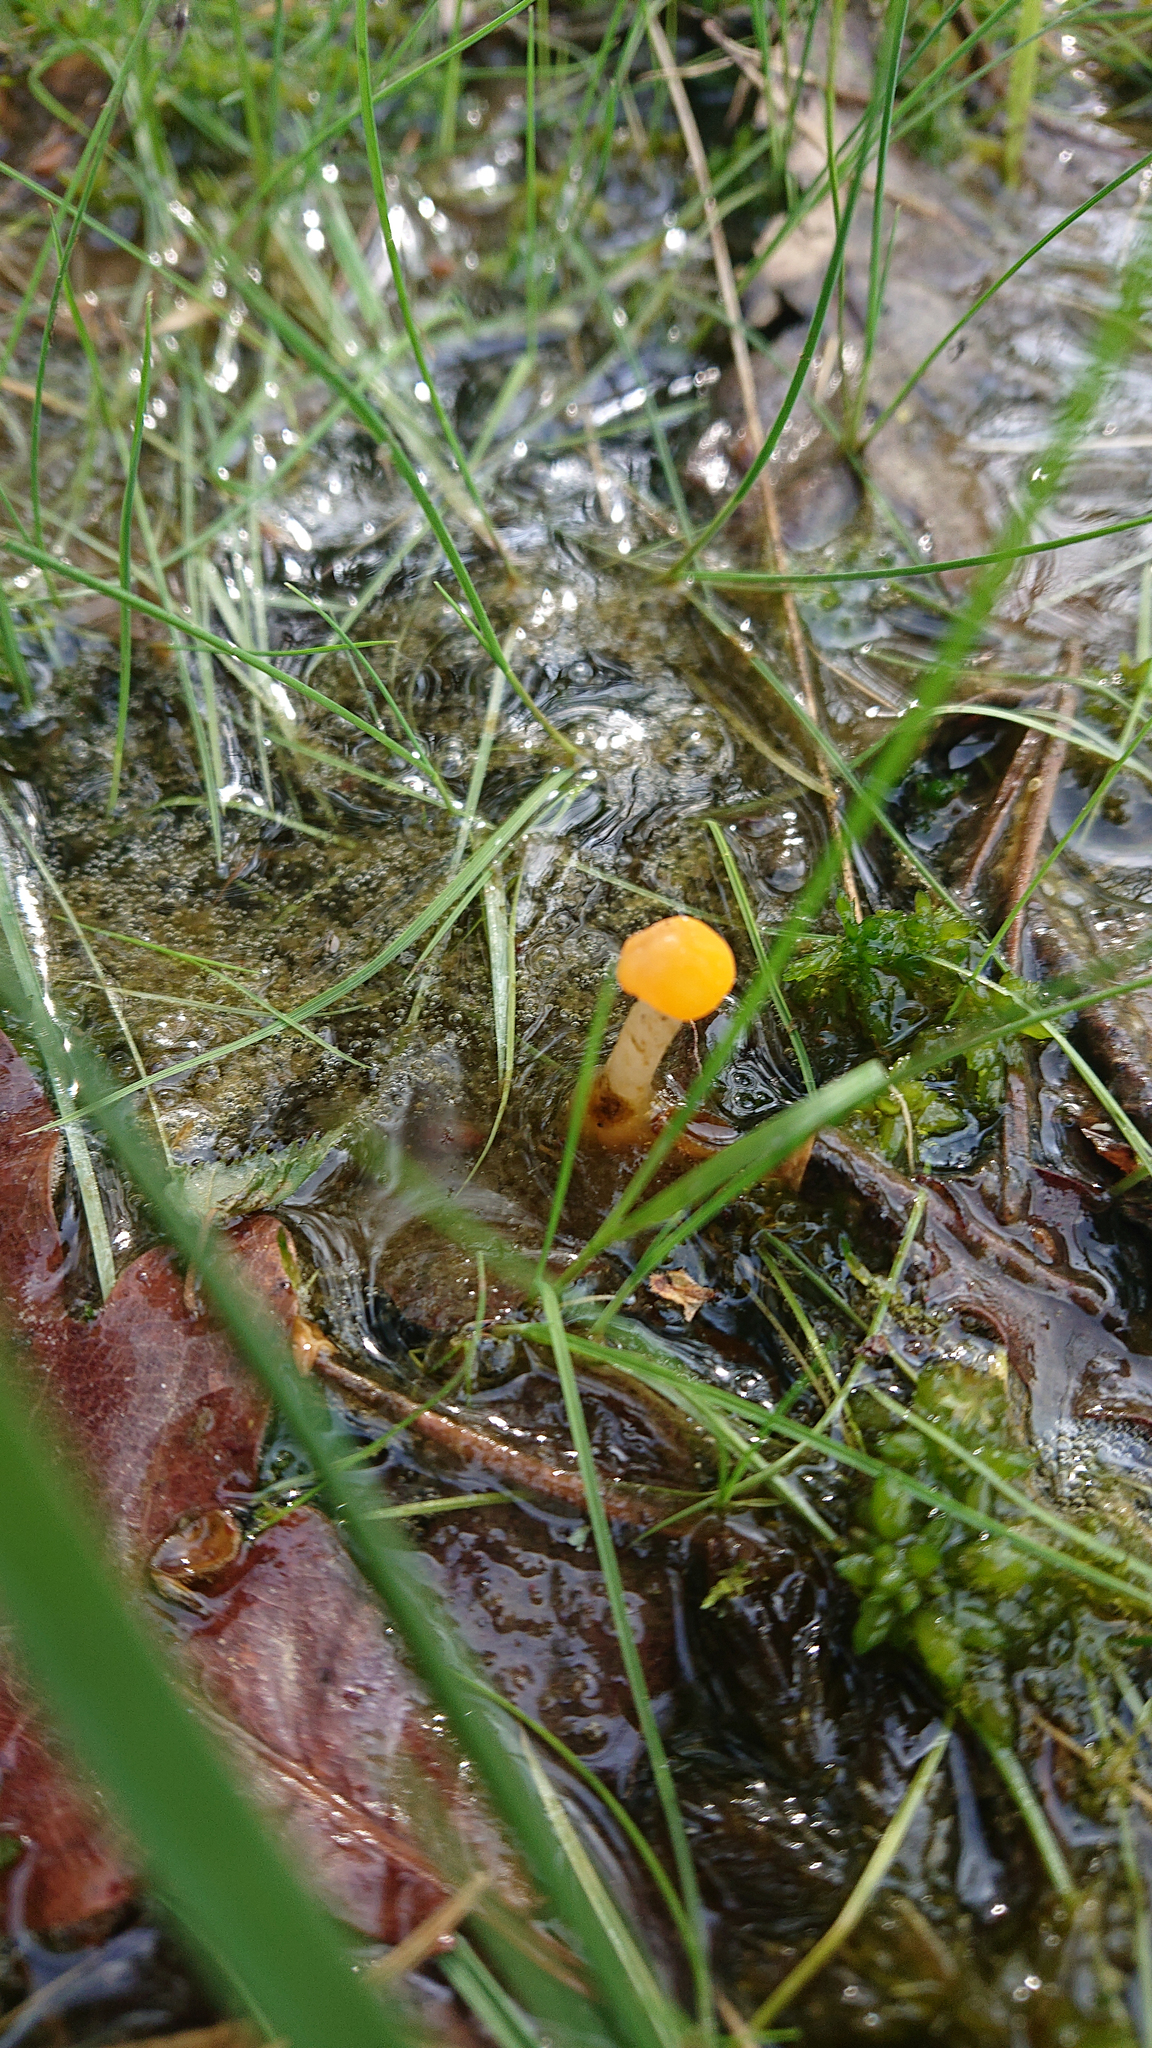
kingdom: Fungi
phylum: Ascomycota
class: Leotiomycetes
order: Helotiales
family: Cenangiaceae
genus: Mitrula
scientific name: Mitrula paludosa
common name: Bog beacon
